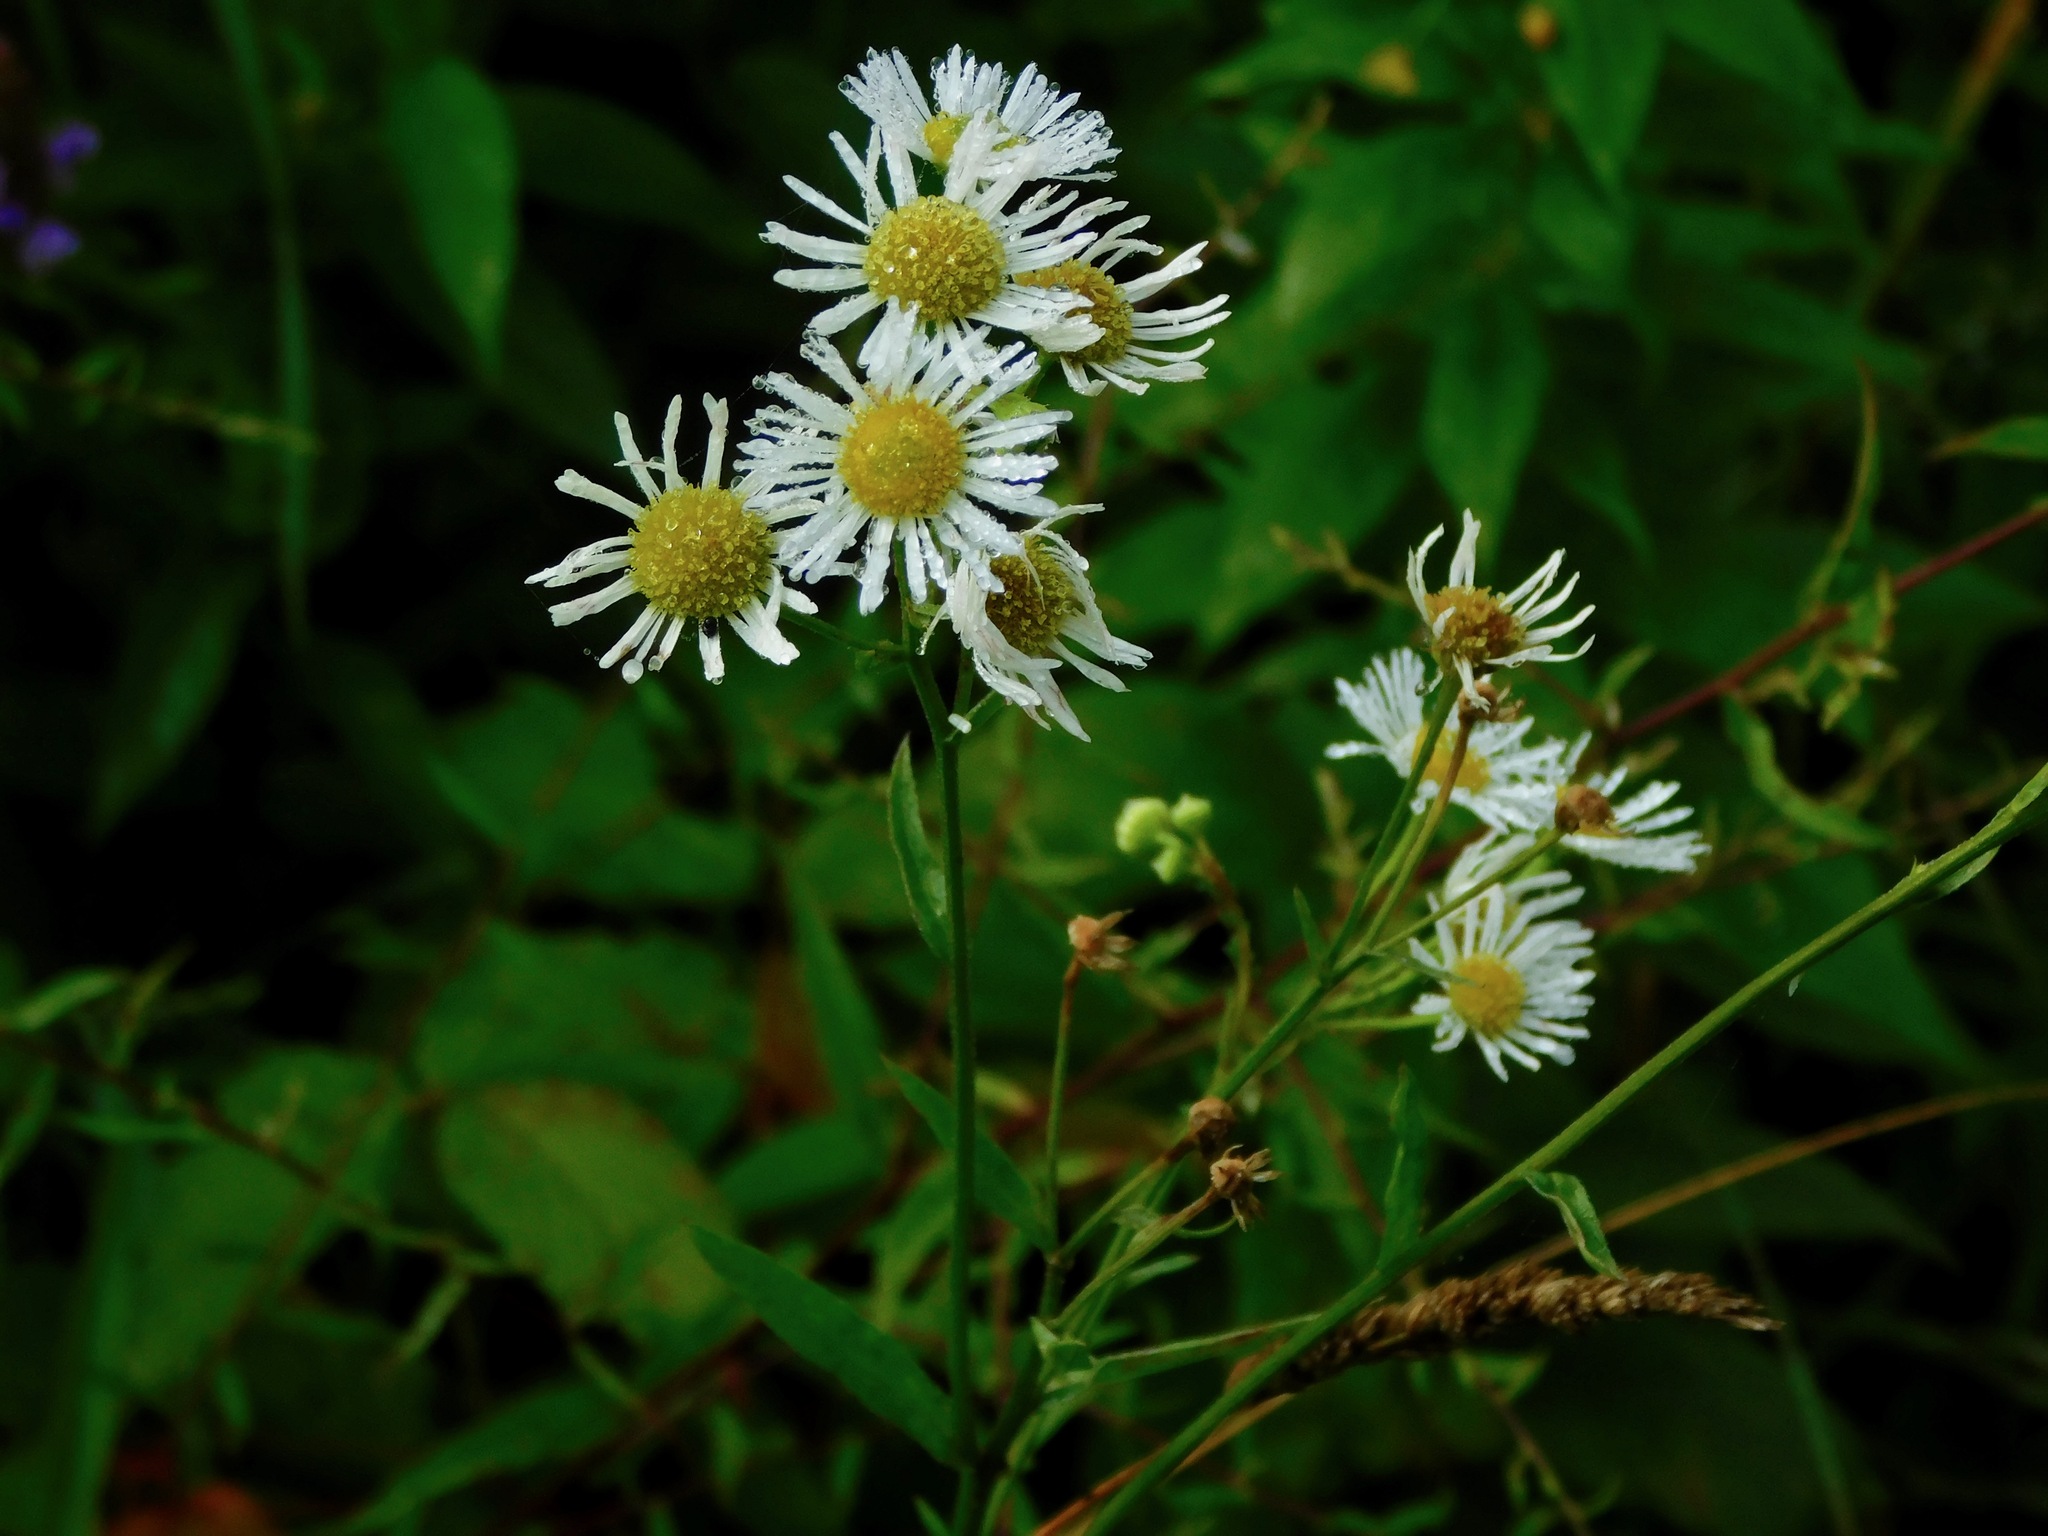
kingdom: Plantae
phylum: Tracheophyta
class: Magnoliopsida
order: Asterales
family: Asteraceae
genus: Erigeron
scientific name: Erigeron annuus
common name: Tall fleabane
